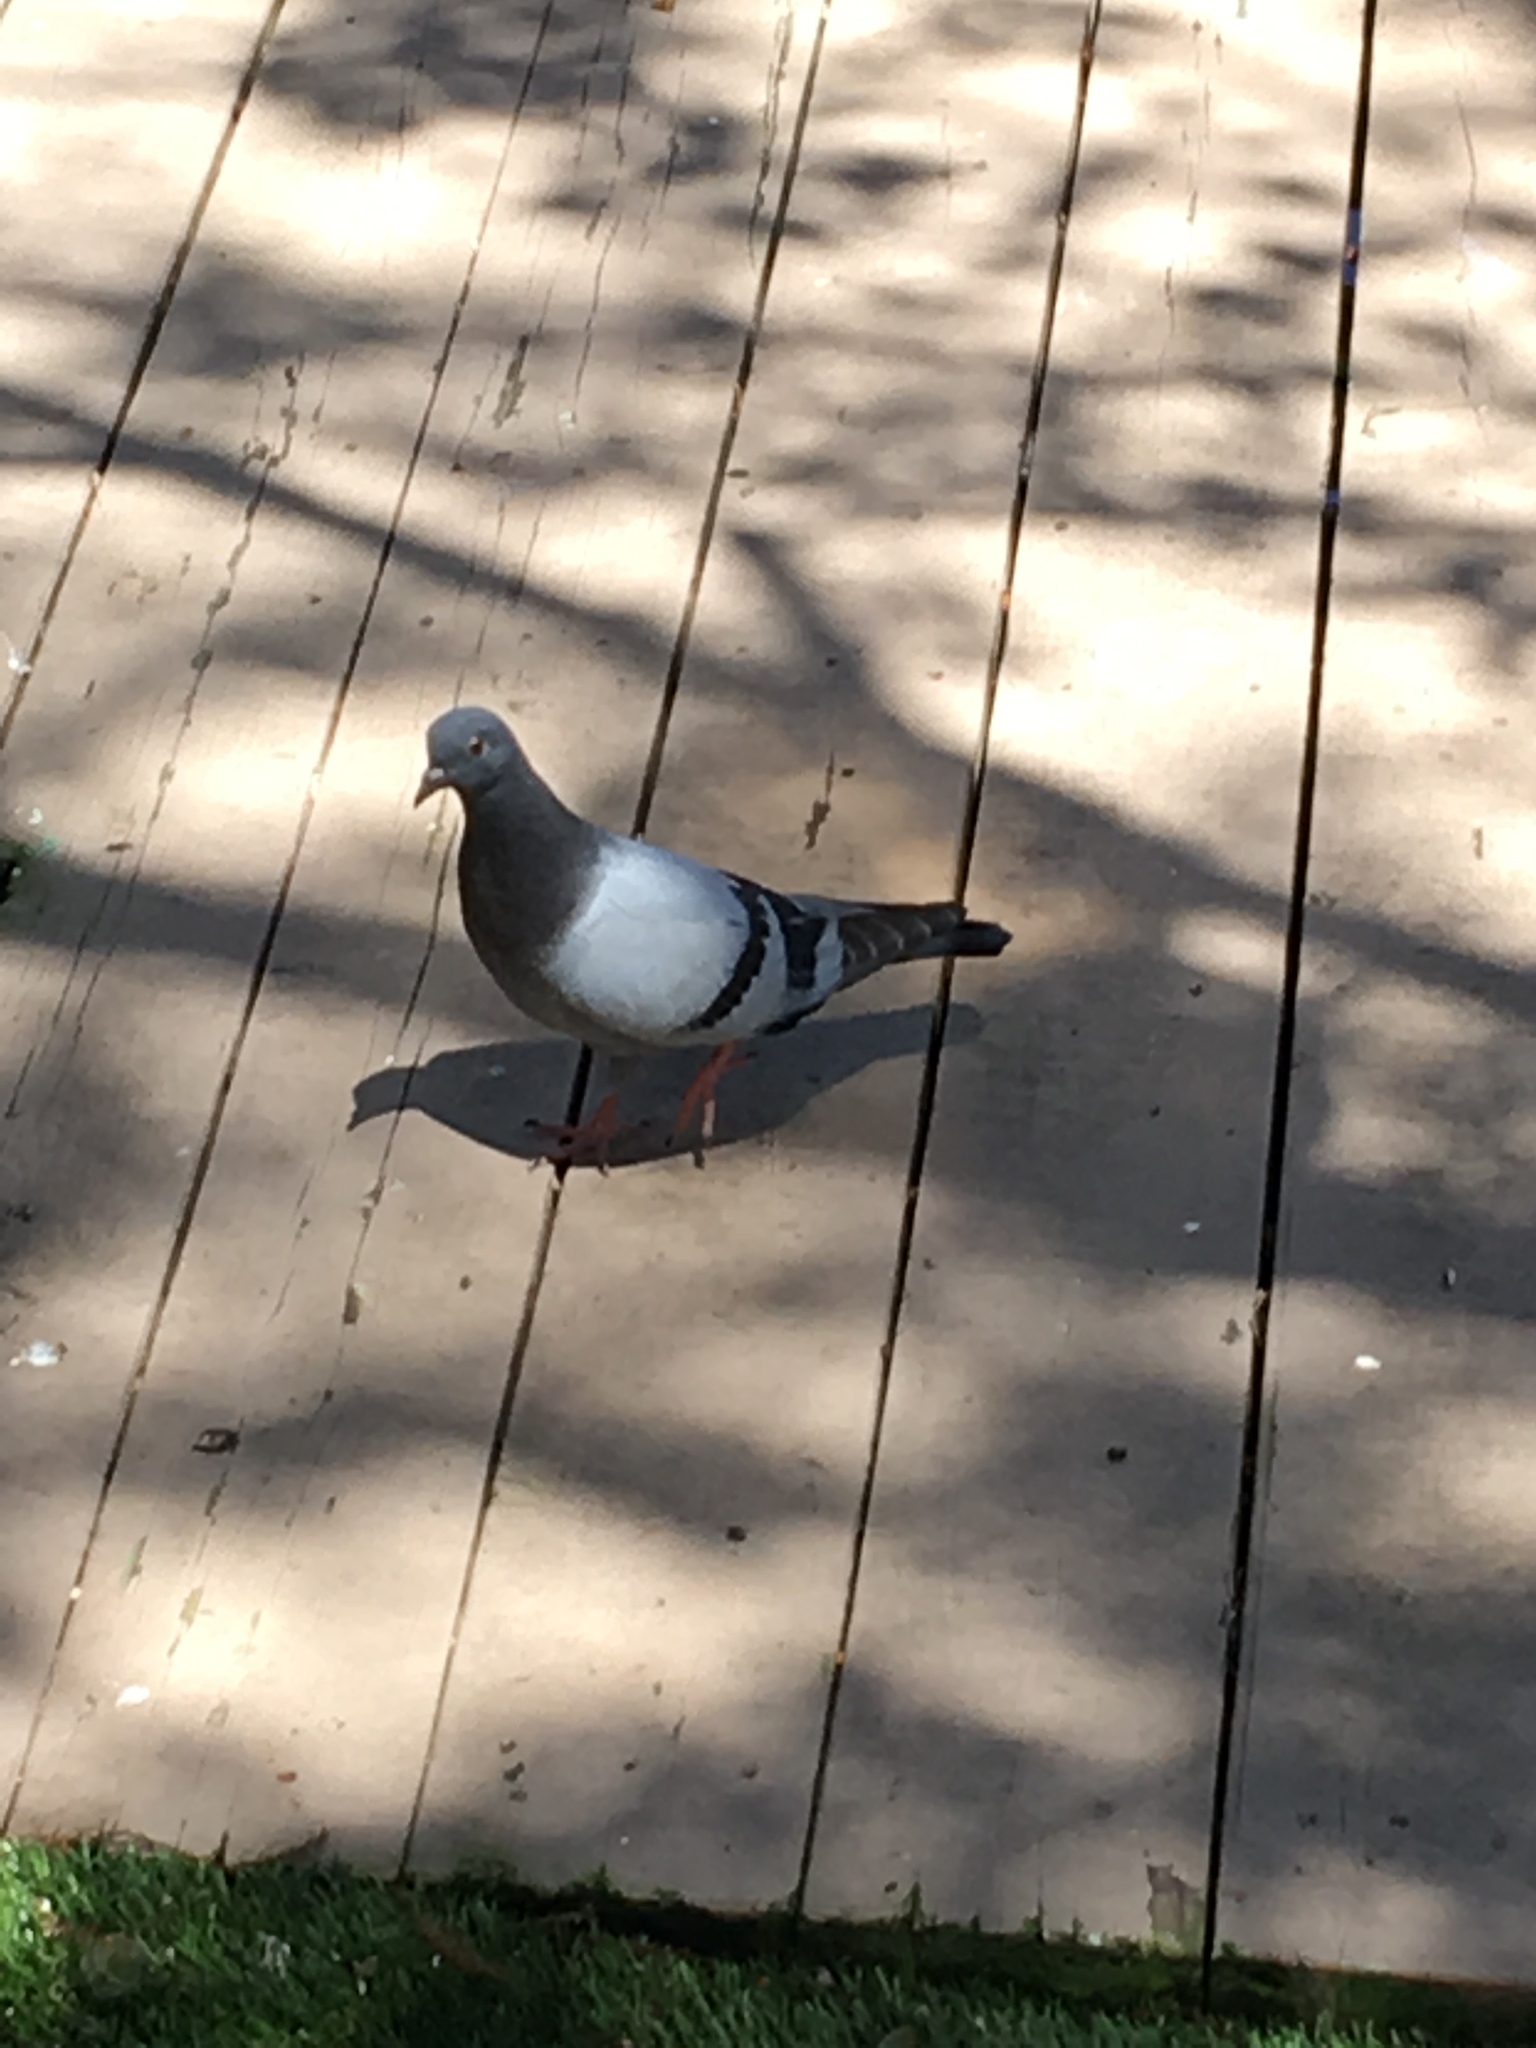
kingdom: Animalia
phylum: Chordata
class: Aves
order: Columbiformes
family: Columbidae
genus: Columba
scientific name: Columba livia
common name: Rock pigeon
